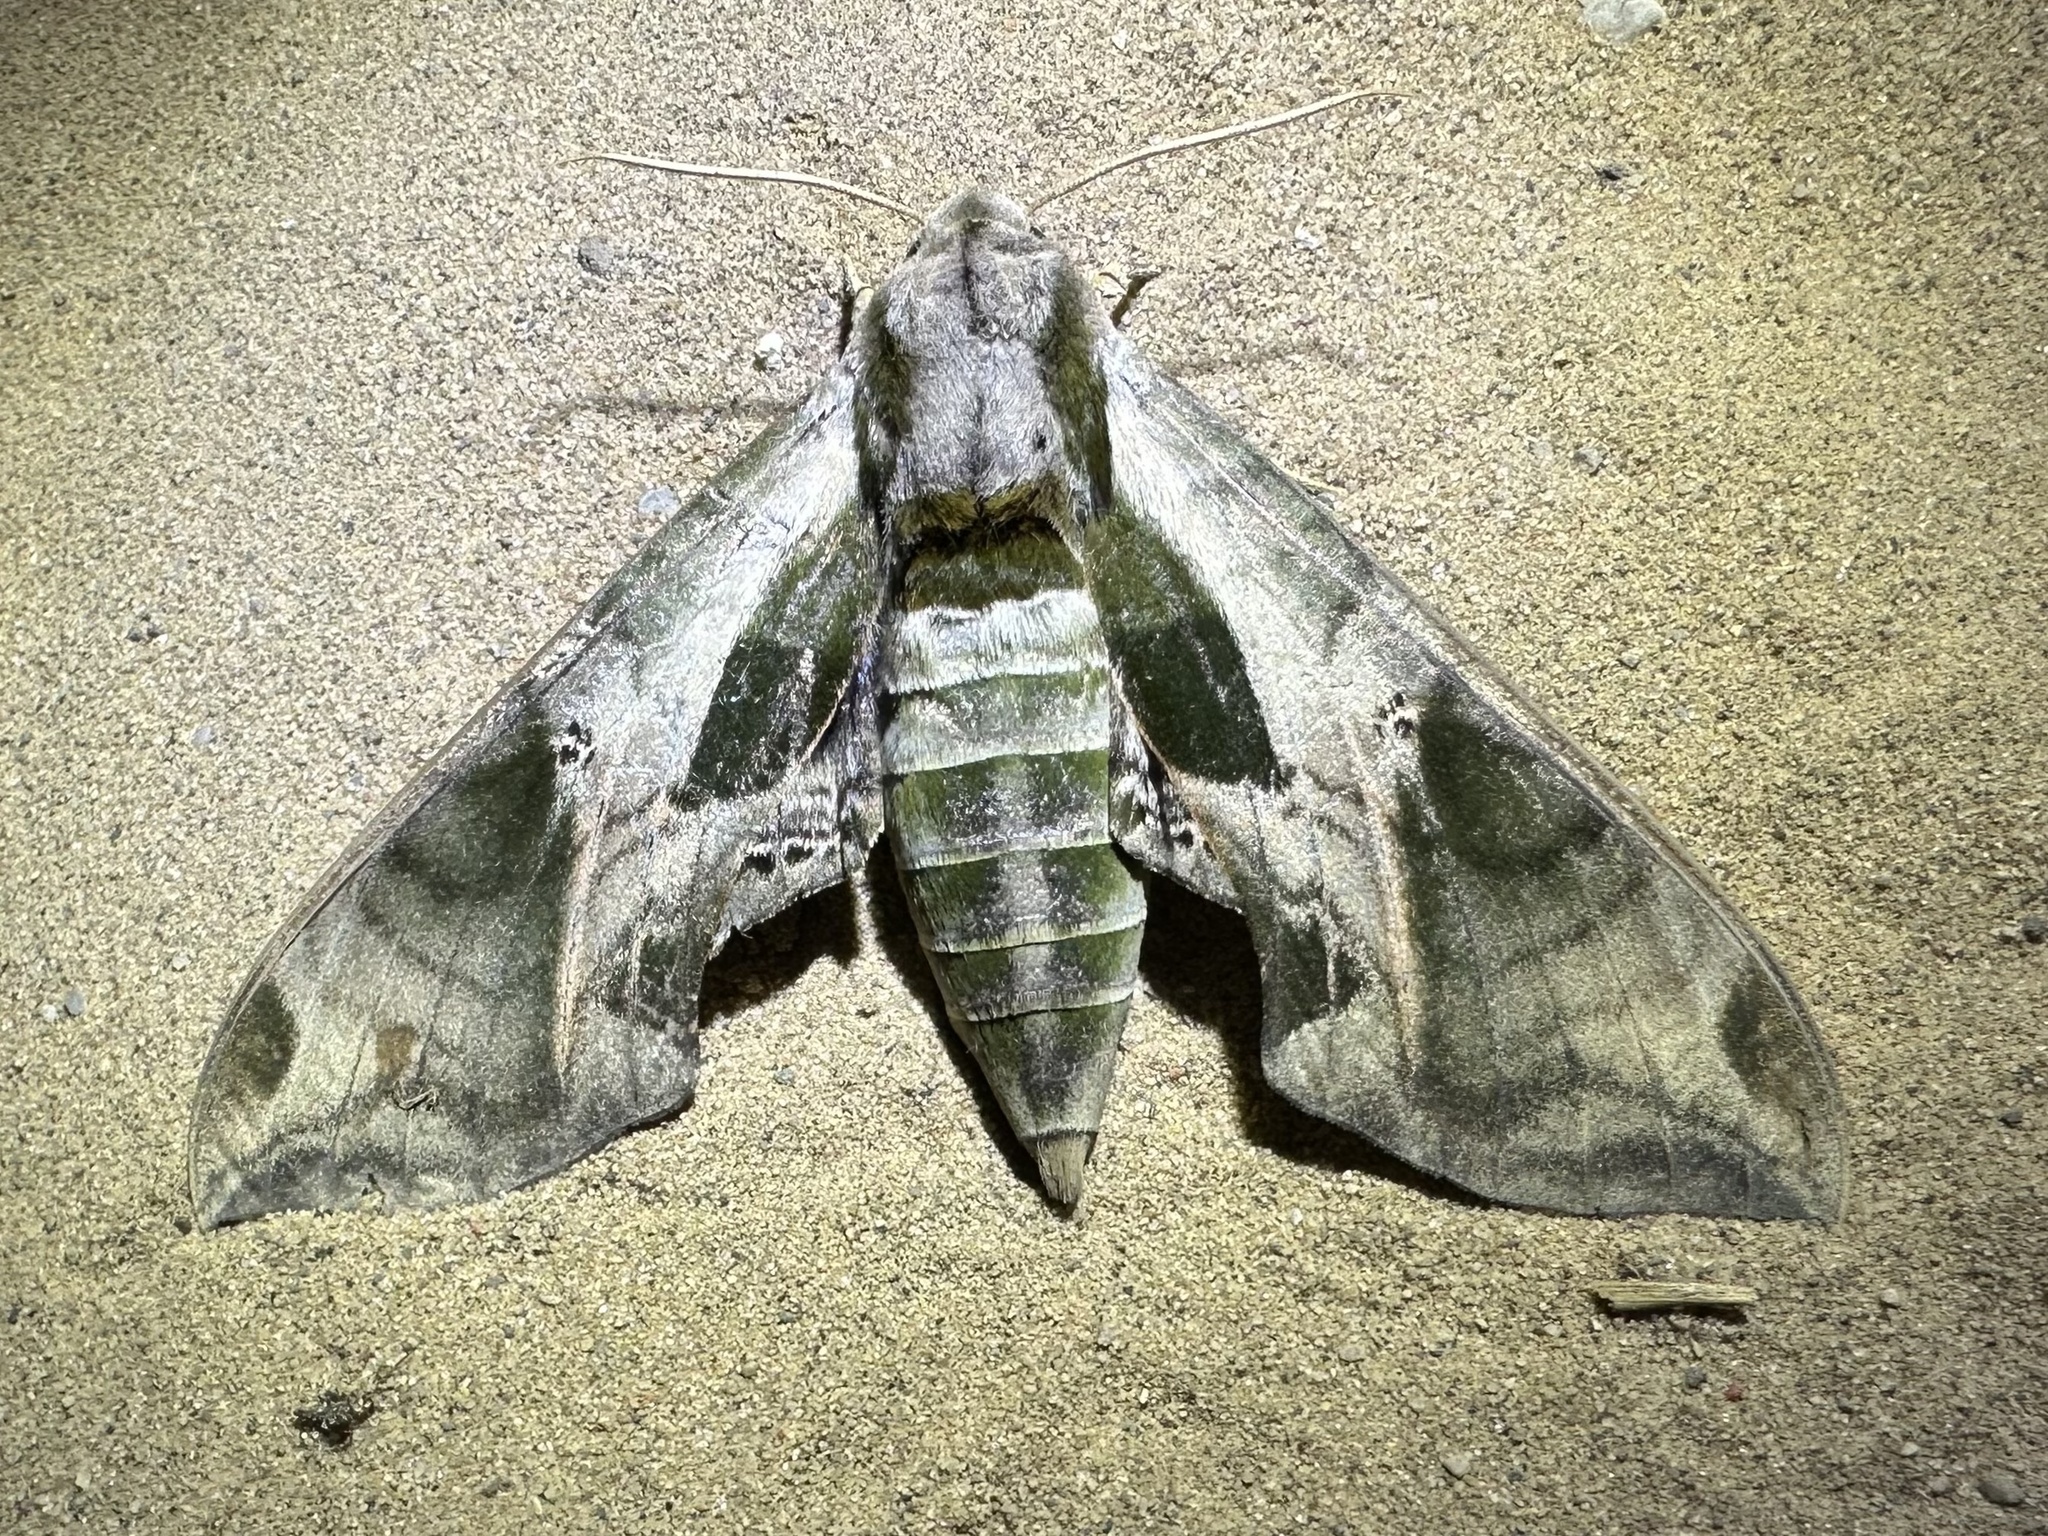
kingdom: Animalia
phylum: Arthropoda
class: Insecta
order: Lepidoptera
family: Sphingidae
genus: Eumorpha
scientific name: Eumorpha pandorus
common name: Pandora sphinx
